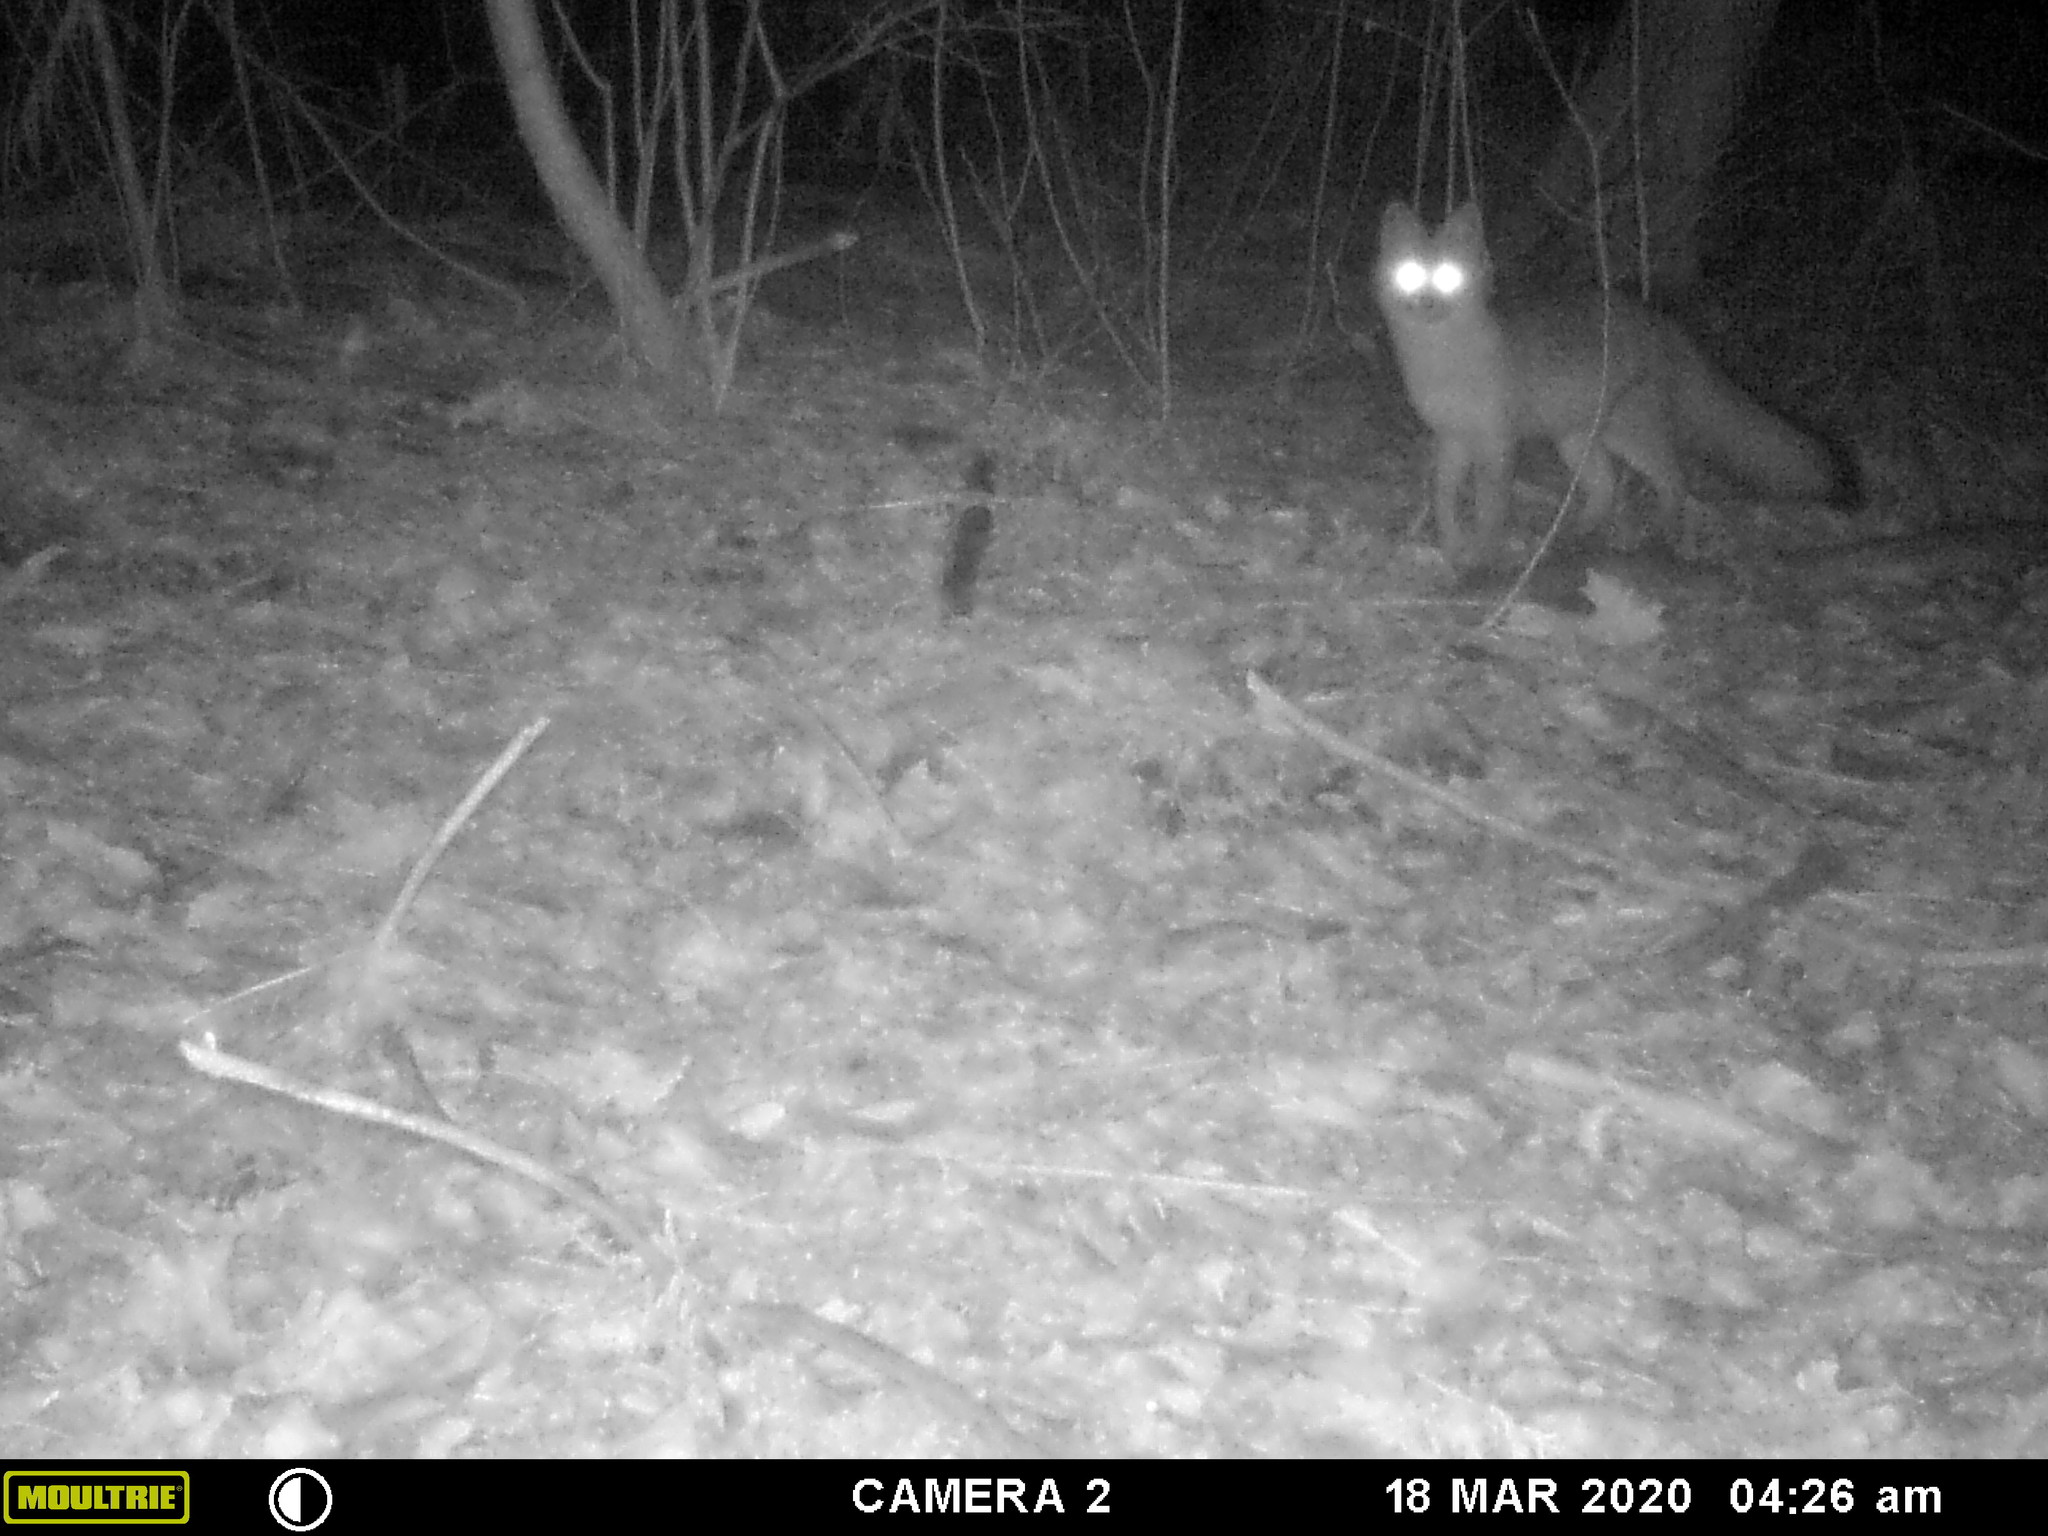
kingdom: Animalia
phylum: Chordata
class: Mammalia
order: Carnivora
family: Canidae
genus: Urocyon
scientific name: Urocyon cinereoargenteus
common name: Gray fox
